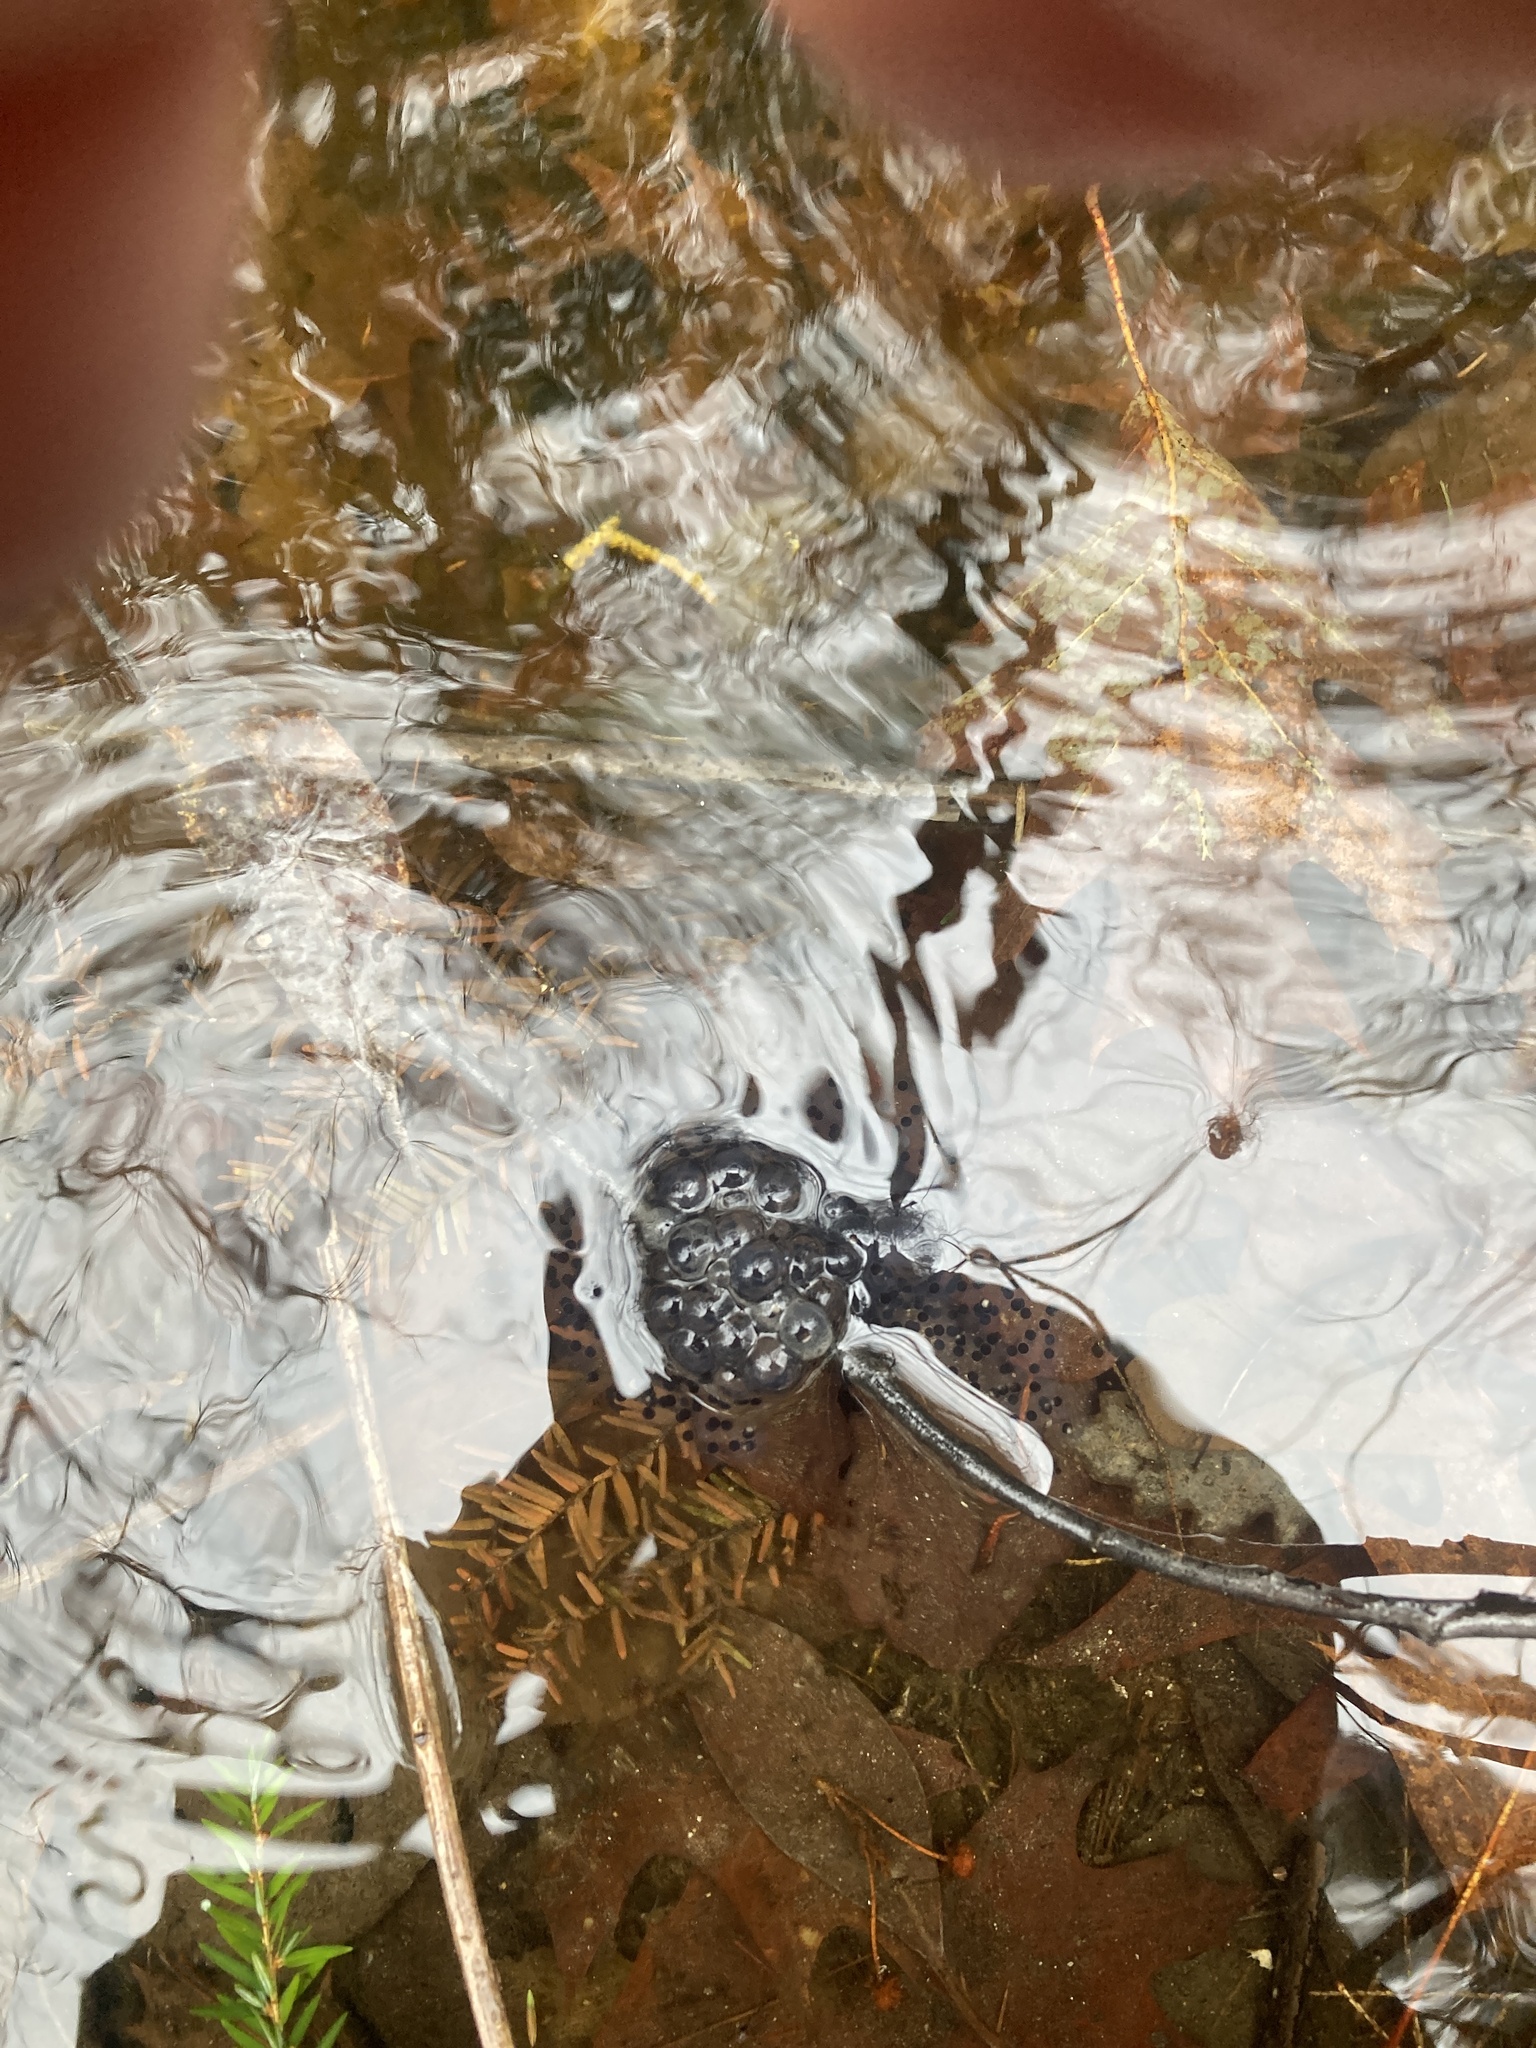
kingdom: Animalia
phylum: Chordata
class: Amphibia
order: Anura
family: Ranidae
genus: Lithobates
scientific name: Lithobates sylvaticus
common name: Wood frog
